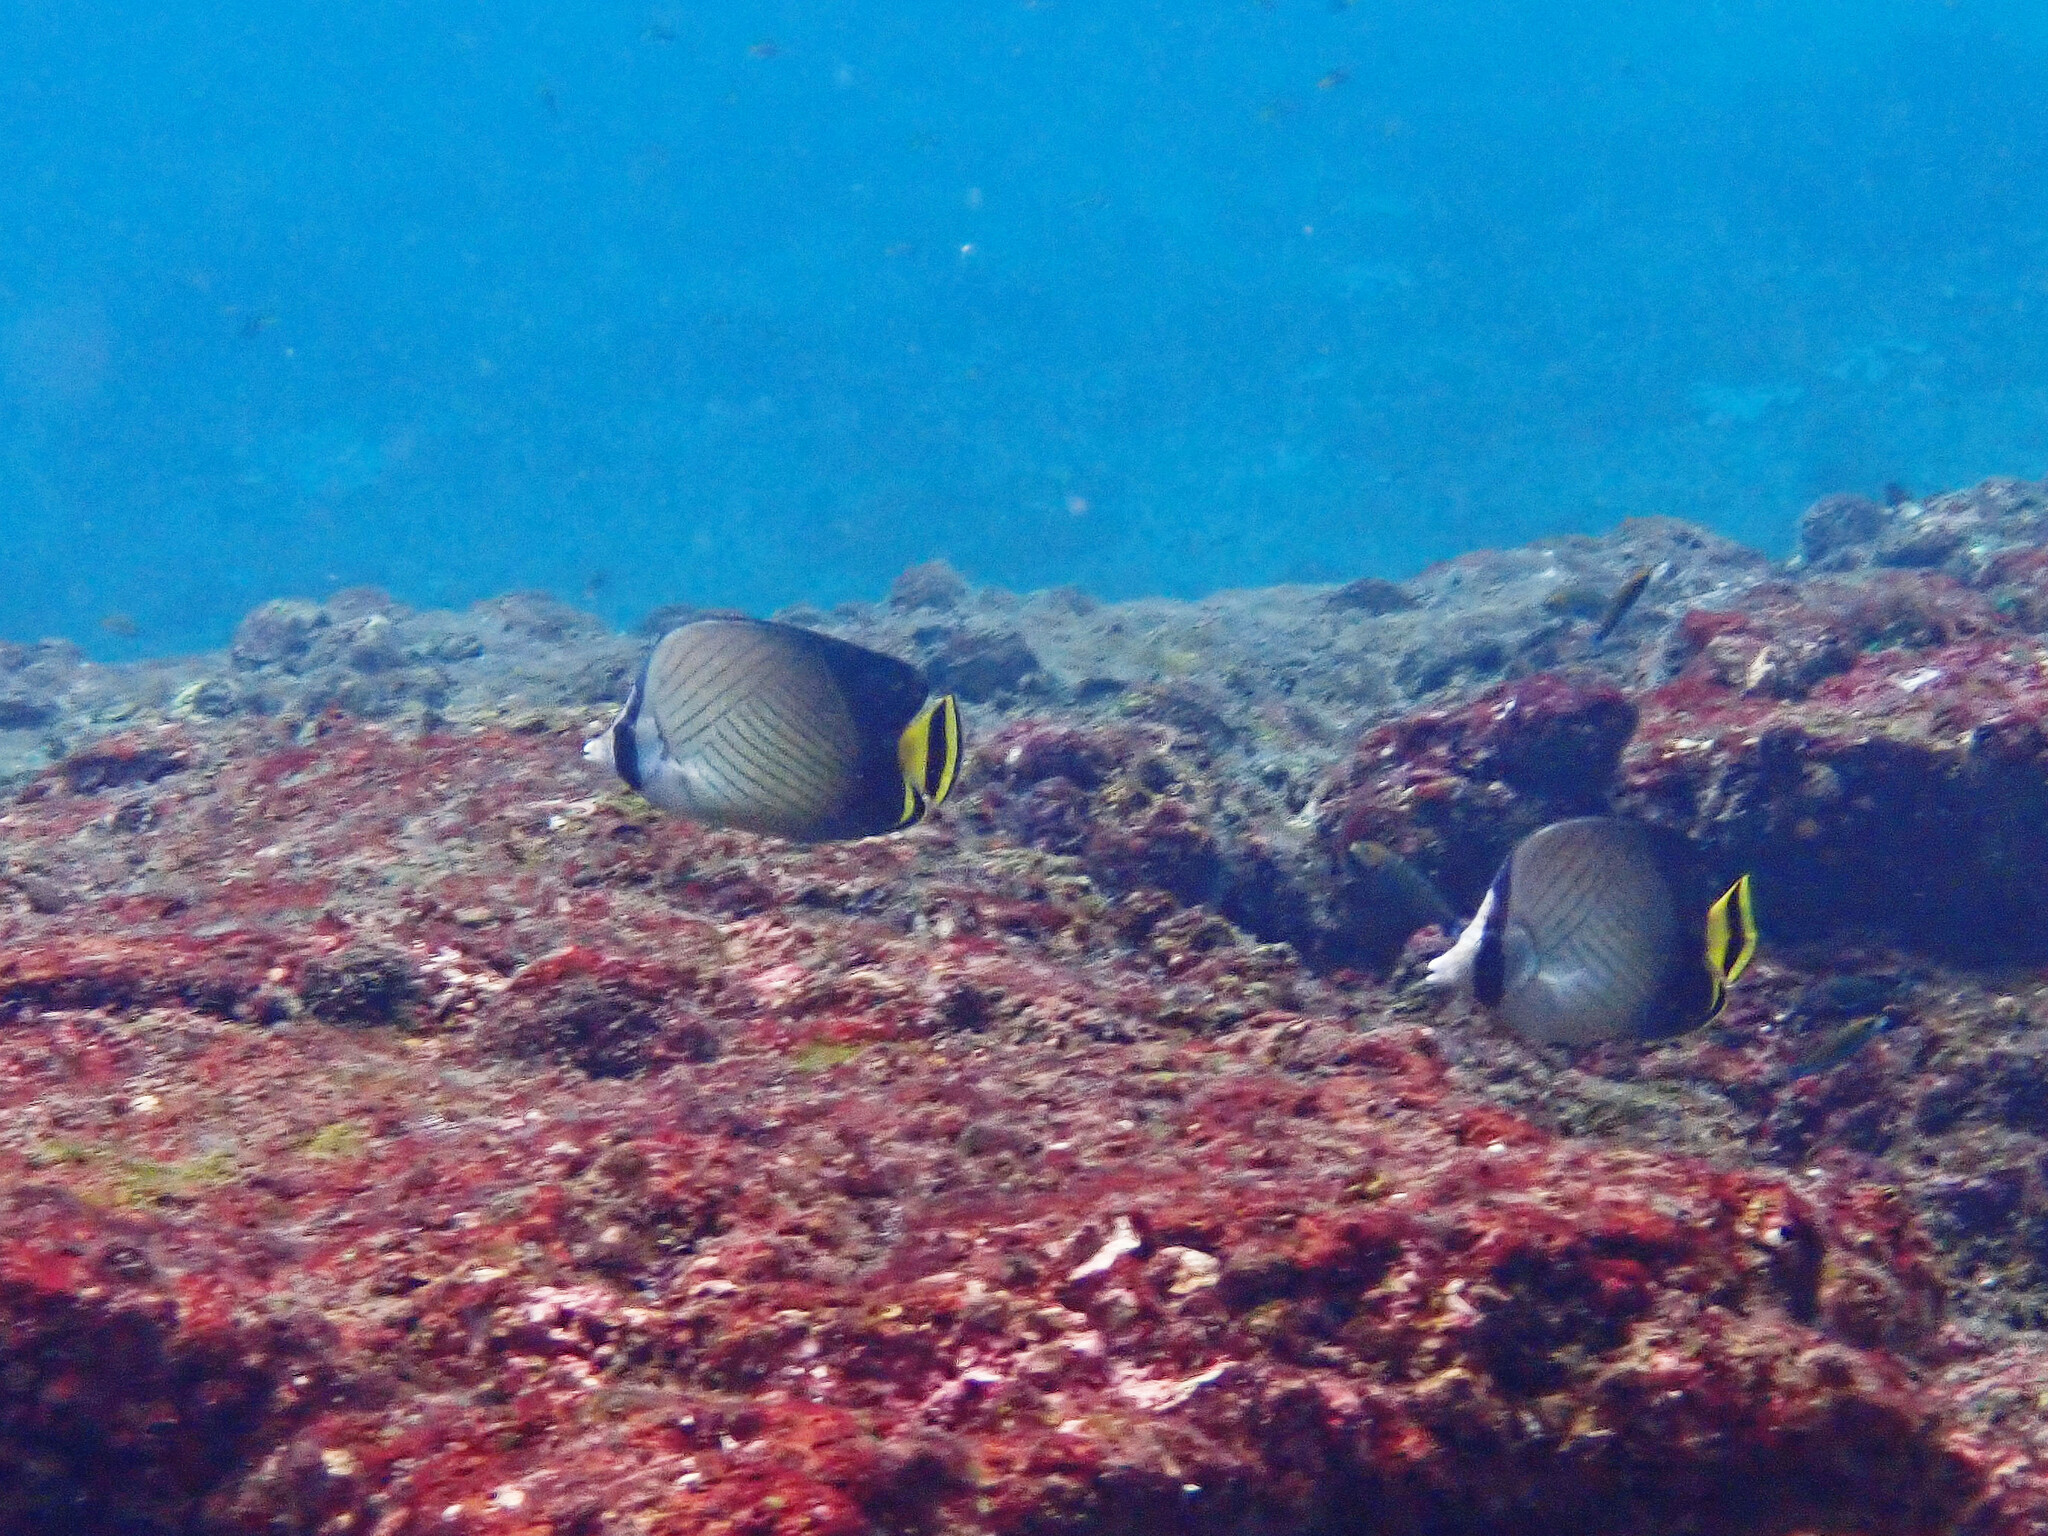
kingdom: Animalia
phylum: Chordata
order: Perciformes
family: Chaetodontidae
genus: Chaetodon
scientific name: Chaetodon decussatus
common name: Indian vagabond butterflyfish
